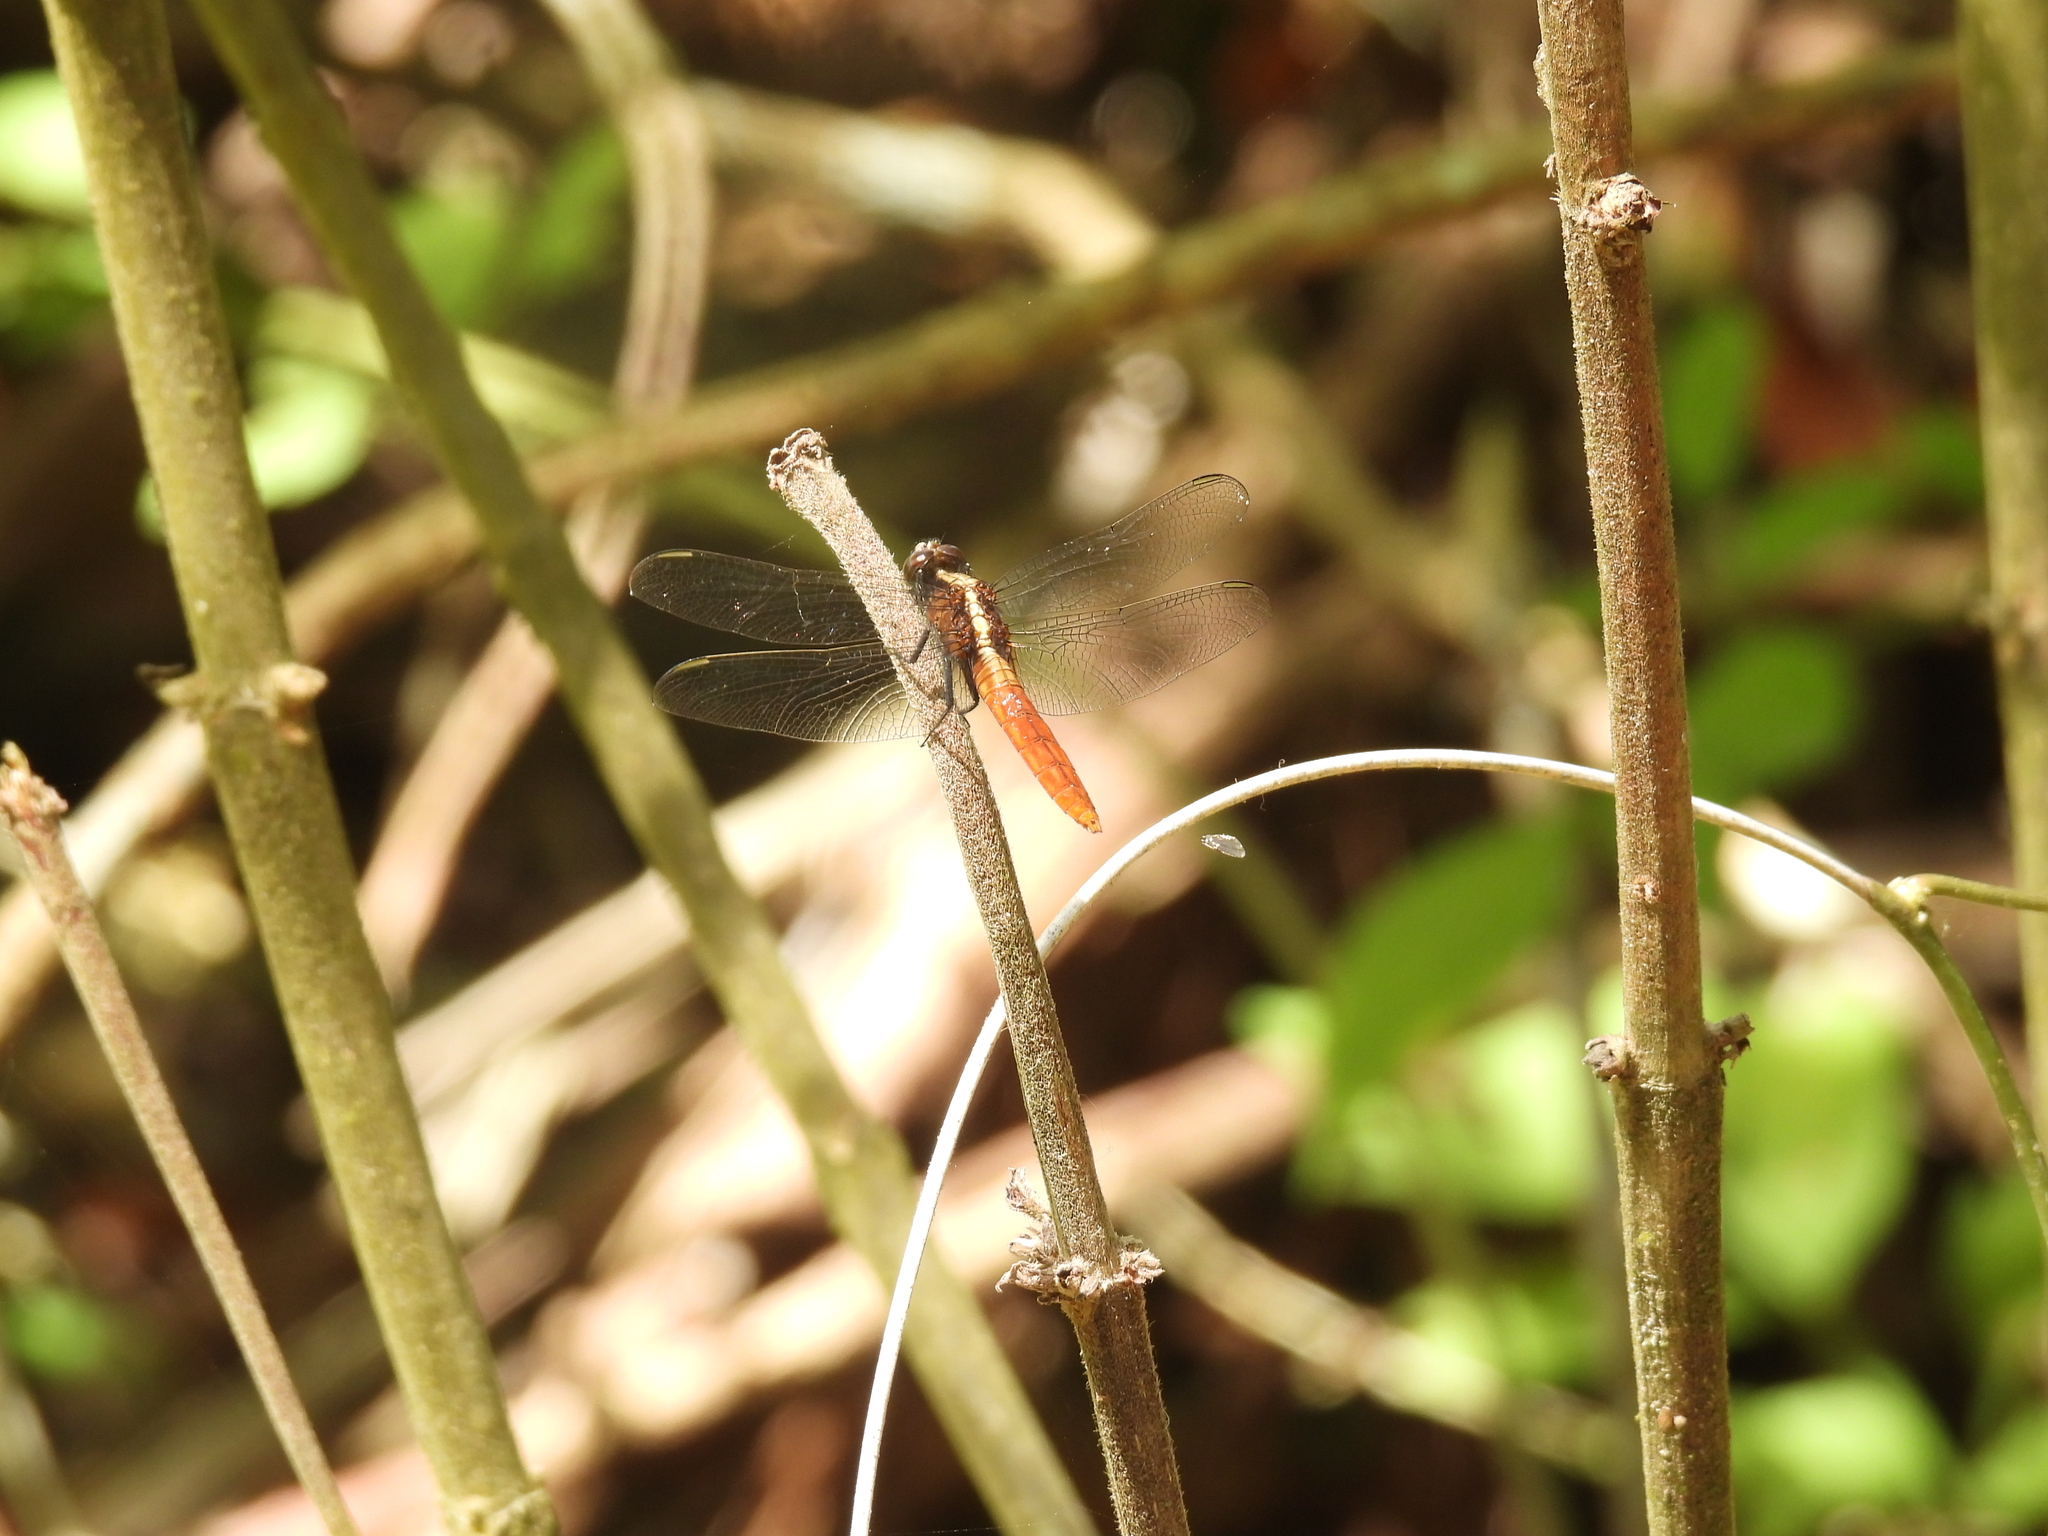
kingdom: Animalia
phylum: Arthropoda
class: Insecta
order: Odonata
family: Libellulidae
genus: Erythemis
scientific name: Erythemis peruviana
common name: Flame-tailed pondhawk
